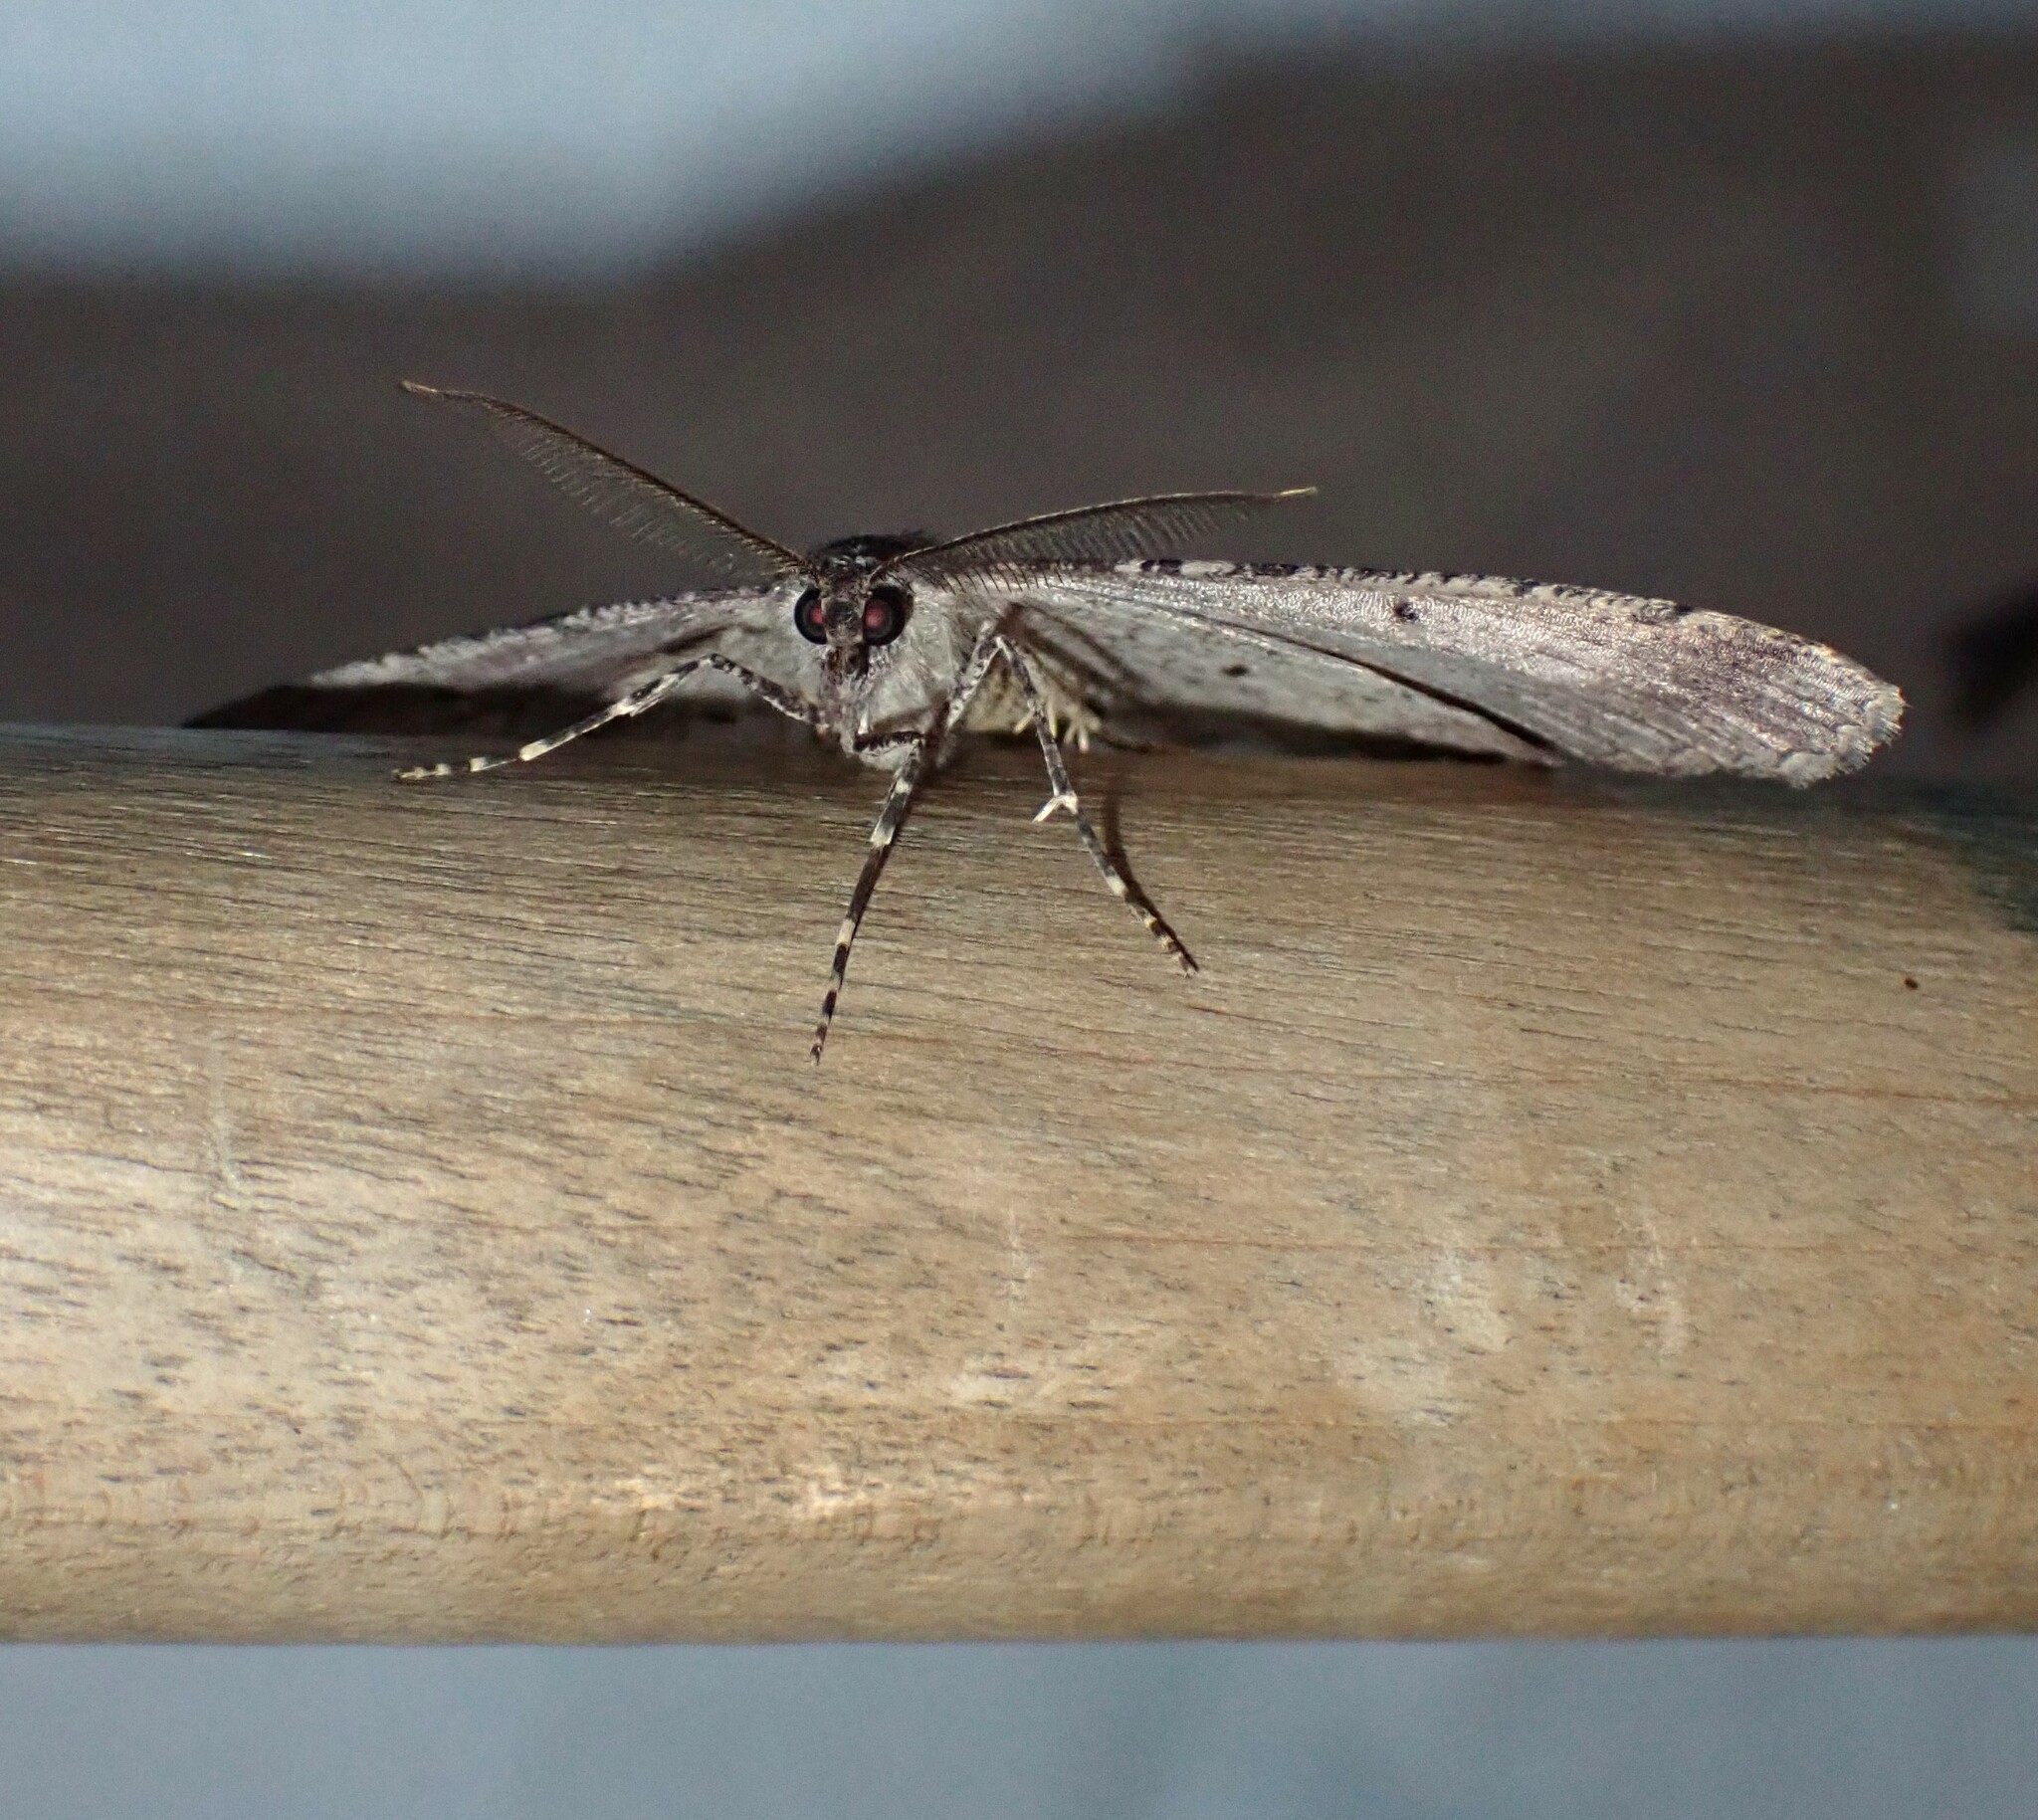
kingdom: Animalia
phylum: Arthropoda
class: Insecta
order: Lepidoptera
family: Geometridae
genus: Neoalcis
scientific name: Neoalcis californiaria
